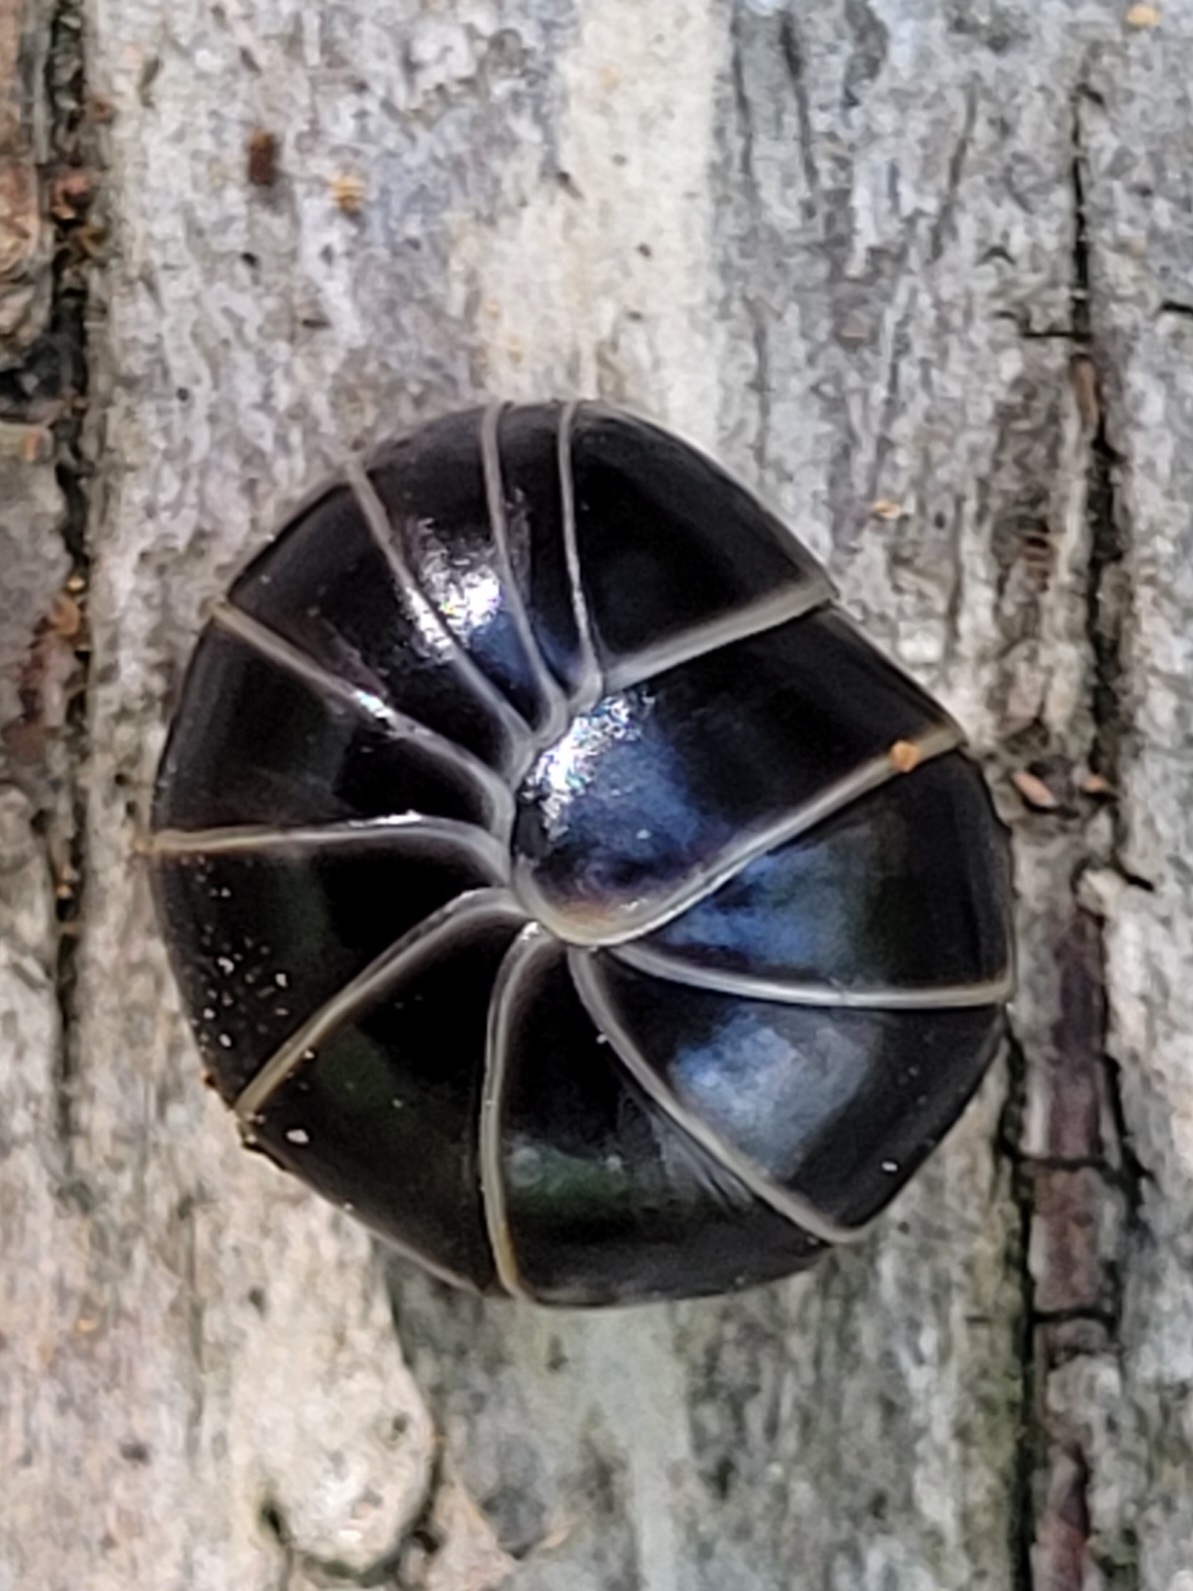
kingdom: Animalia
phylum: Arthropoda
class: Diplopoda
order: Glomerida
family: Glomeridae
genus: Glomeris
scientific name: Glomeris marginata
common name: Bordered pill millipede
